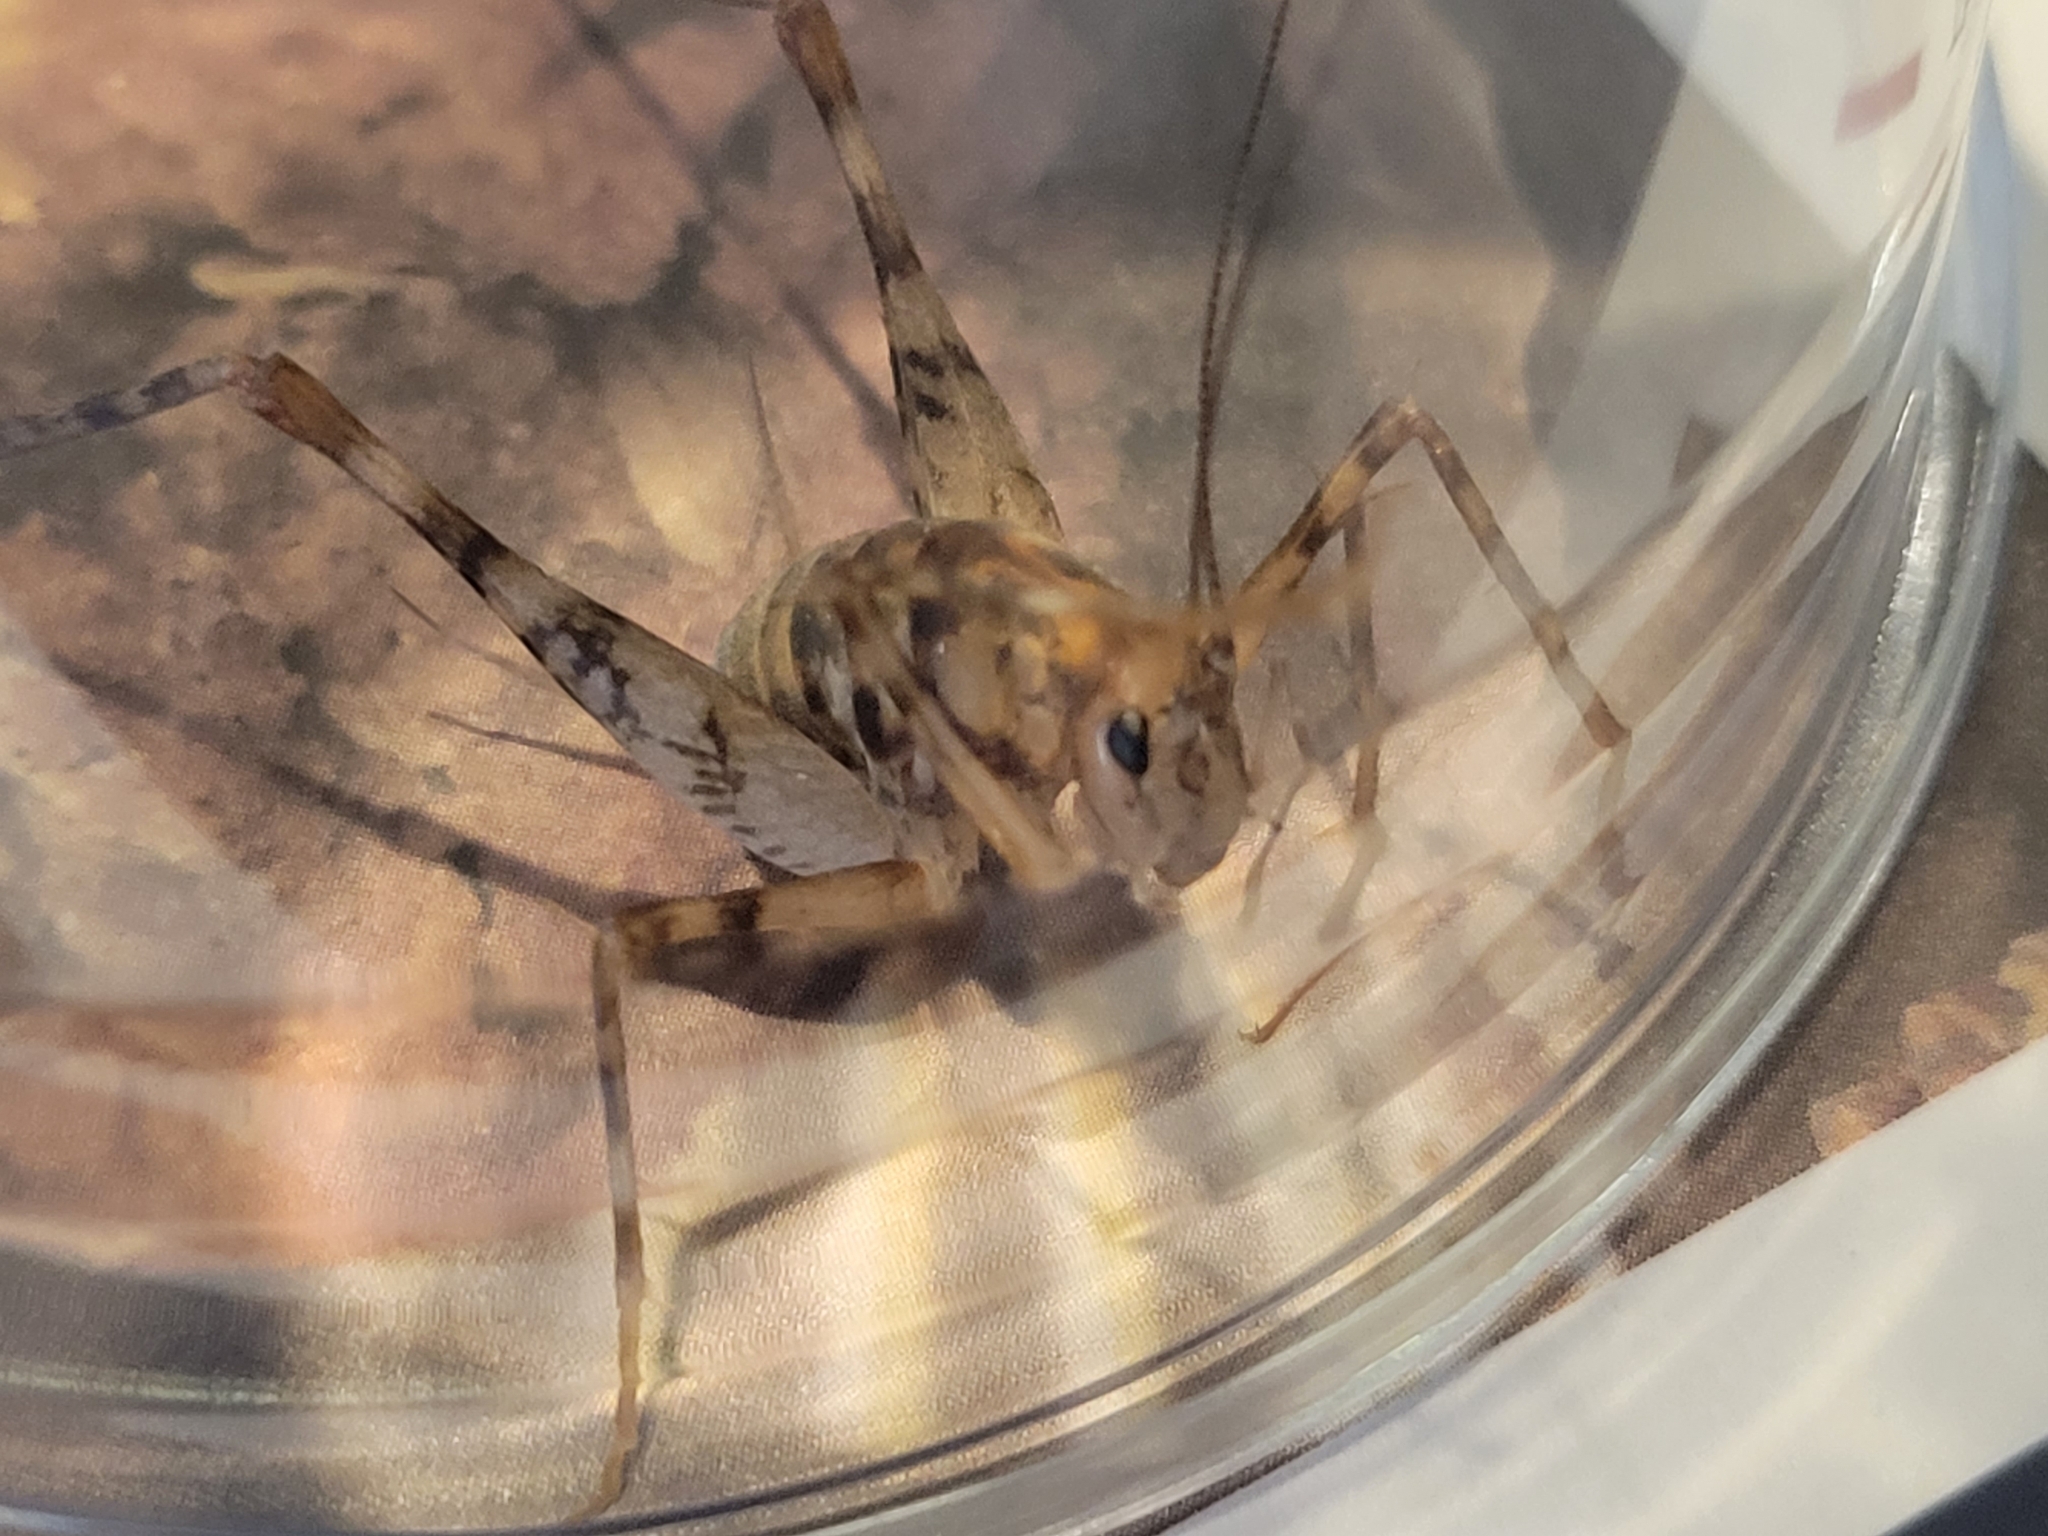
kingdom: Animalia
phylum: Arthropoda
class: Insecta
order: Orthoptera
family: Rhaphidophoridae
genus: Tachycines
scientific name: Tachycines asynamorus
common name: Greenhouse camel cricket
